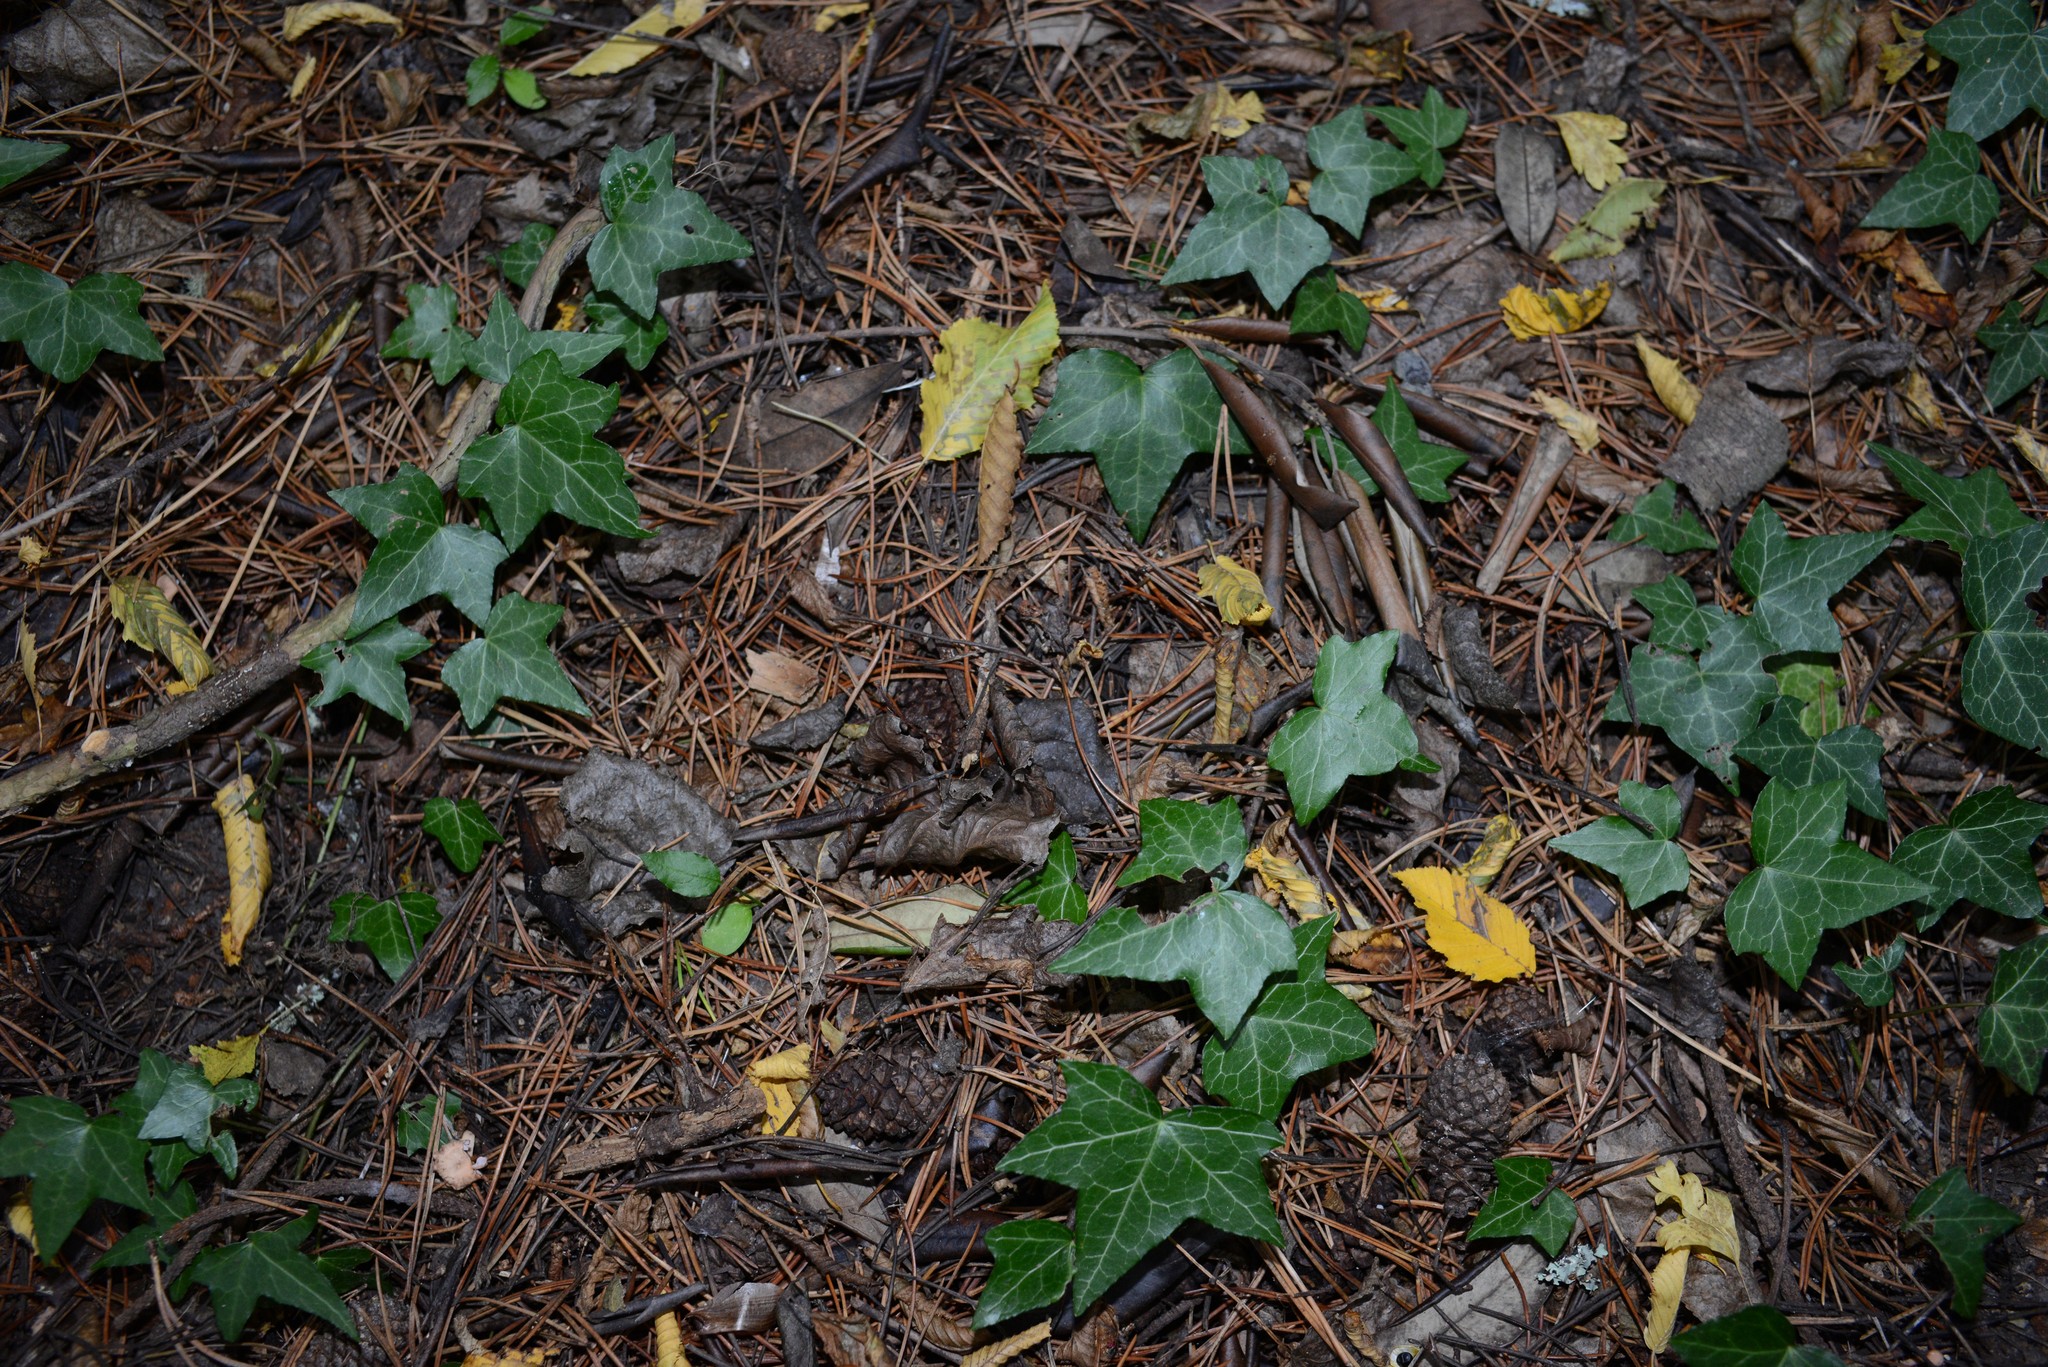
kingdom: Plantae
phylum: Tracheophyta
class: Magnoliopsida
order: Apiales
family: Araliaceae
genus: Hedera
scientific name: Hedera helix
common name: Ivy
